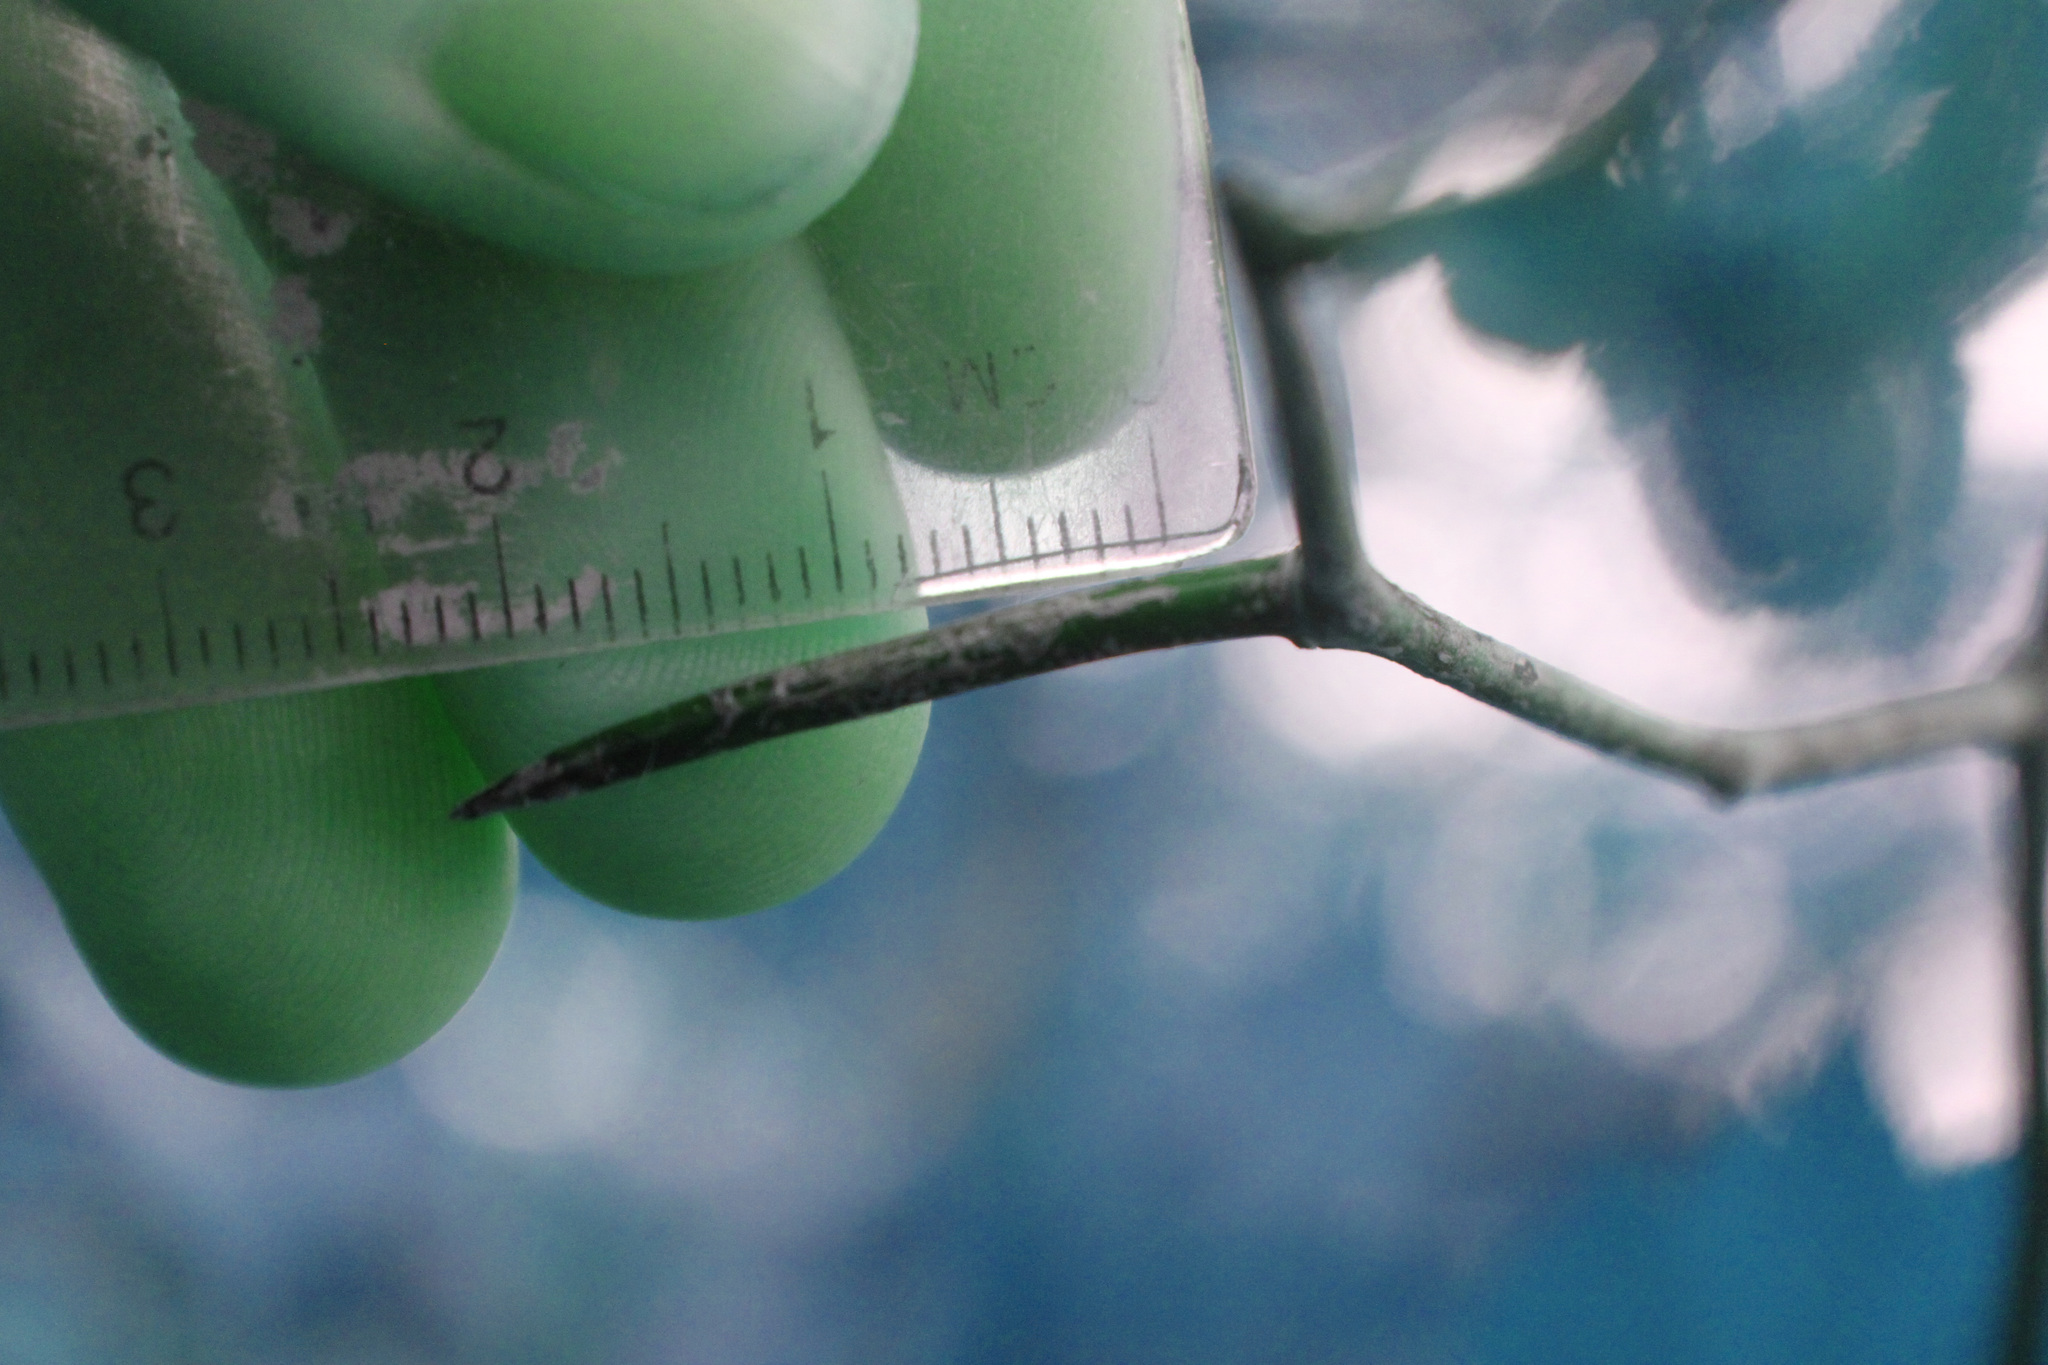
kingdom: Plantae
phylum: Tracheophyta
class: Magnoliopsida
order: Rosales
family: Rosaceae
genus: Crataegus
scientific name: Crataegus flabellata
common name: Bosc's hawthorn
